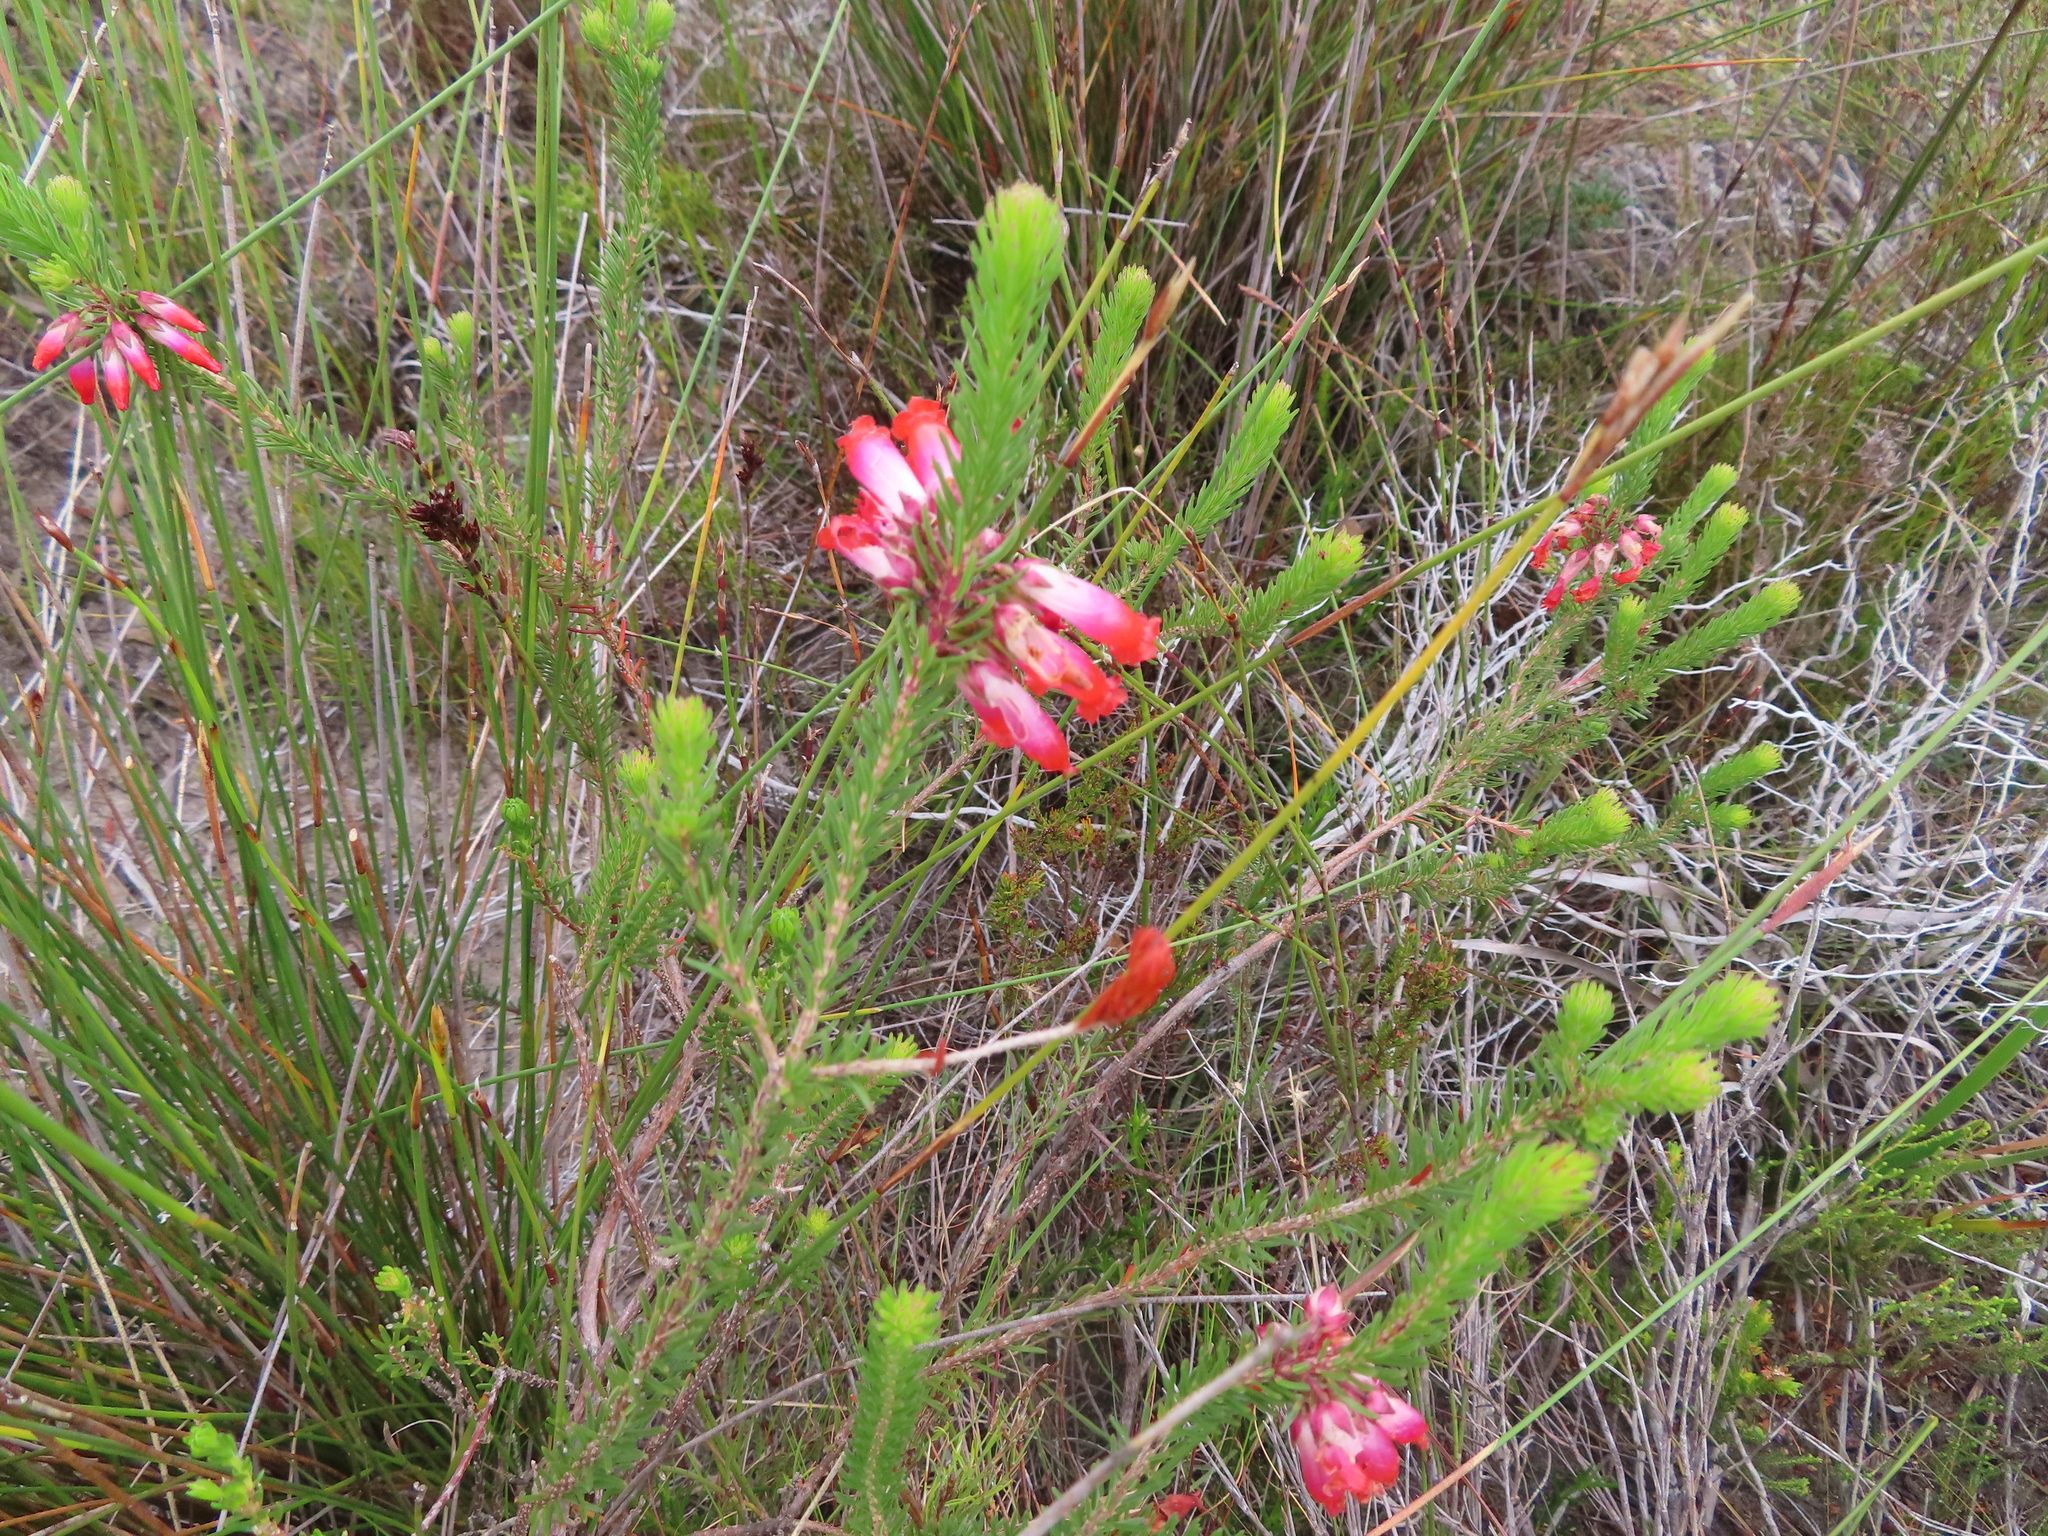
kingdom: Plantae
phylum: Tracheophyta
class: Magnoliopsida
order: Ericales
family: Ericaceae
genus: Erica
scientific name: Erica regia
